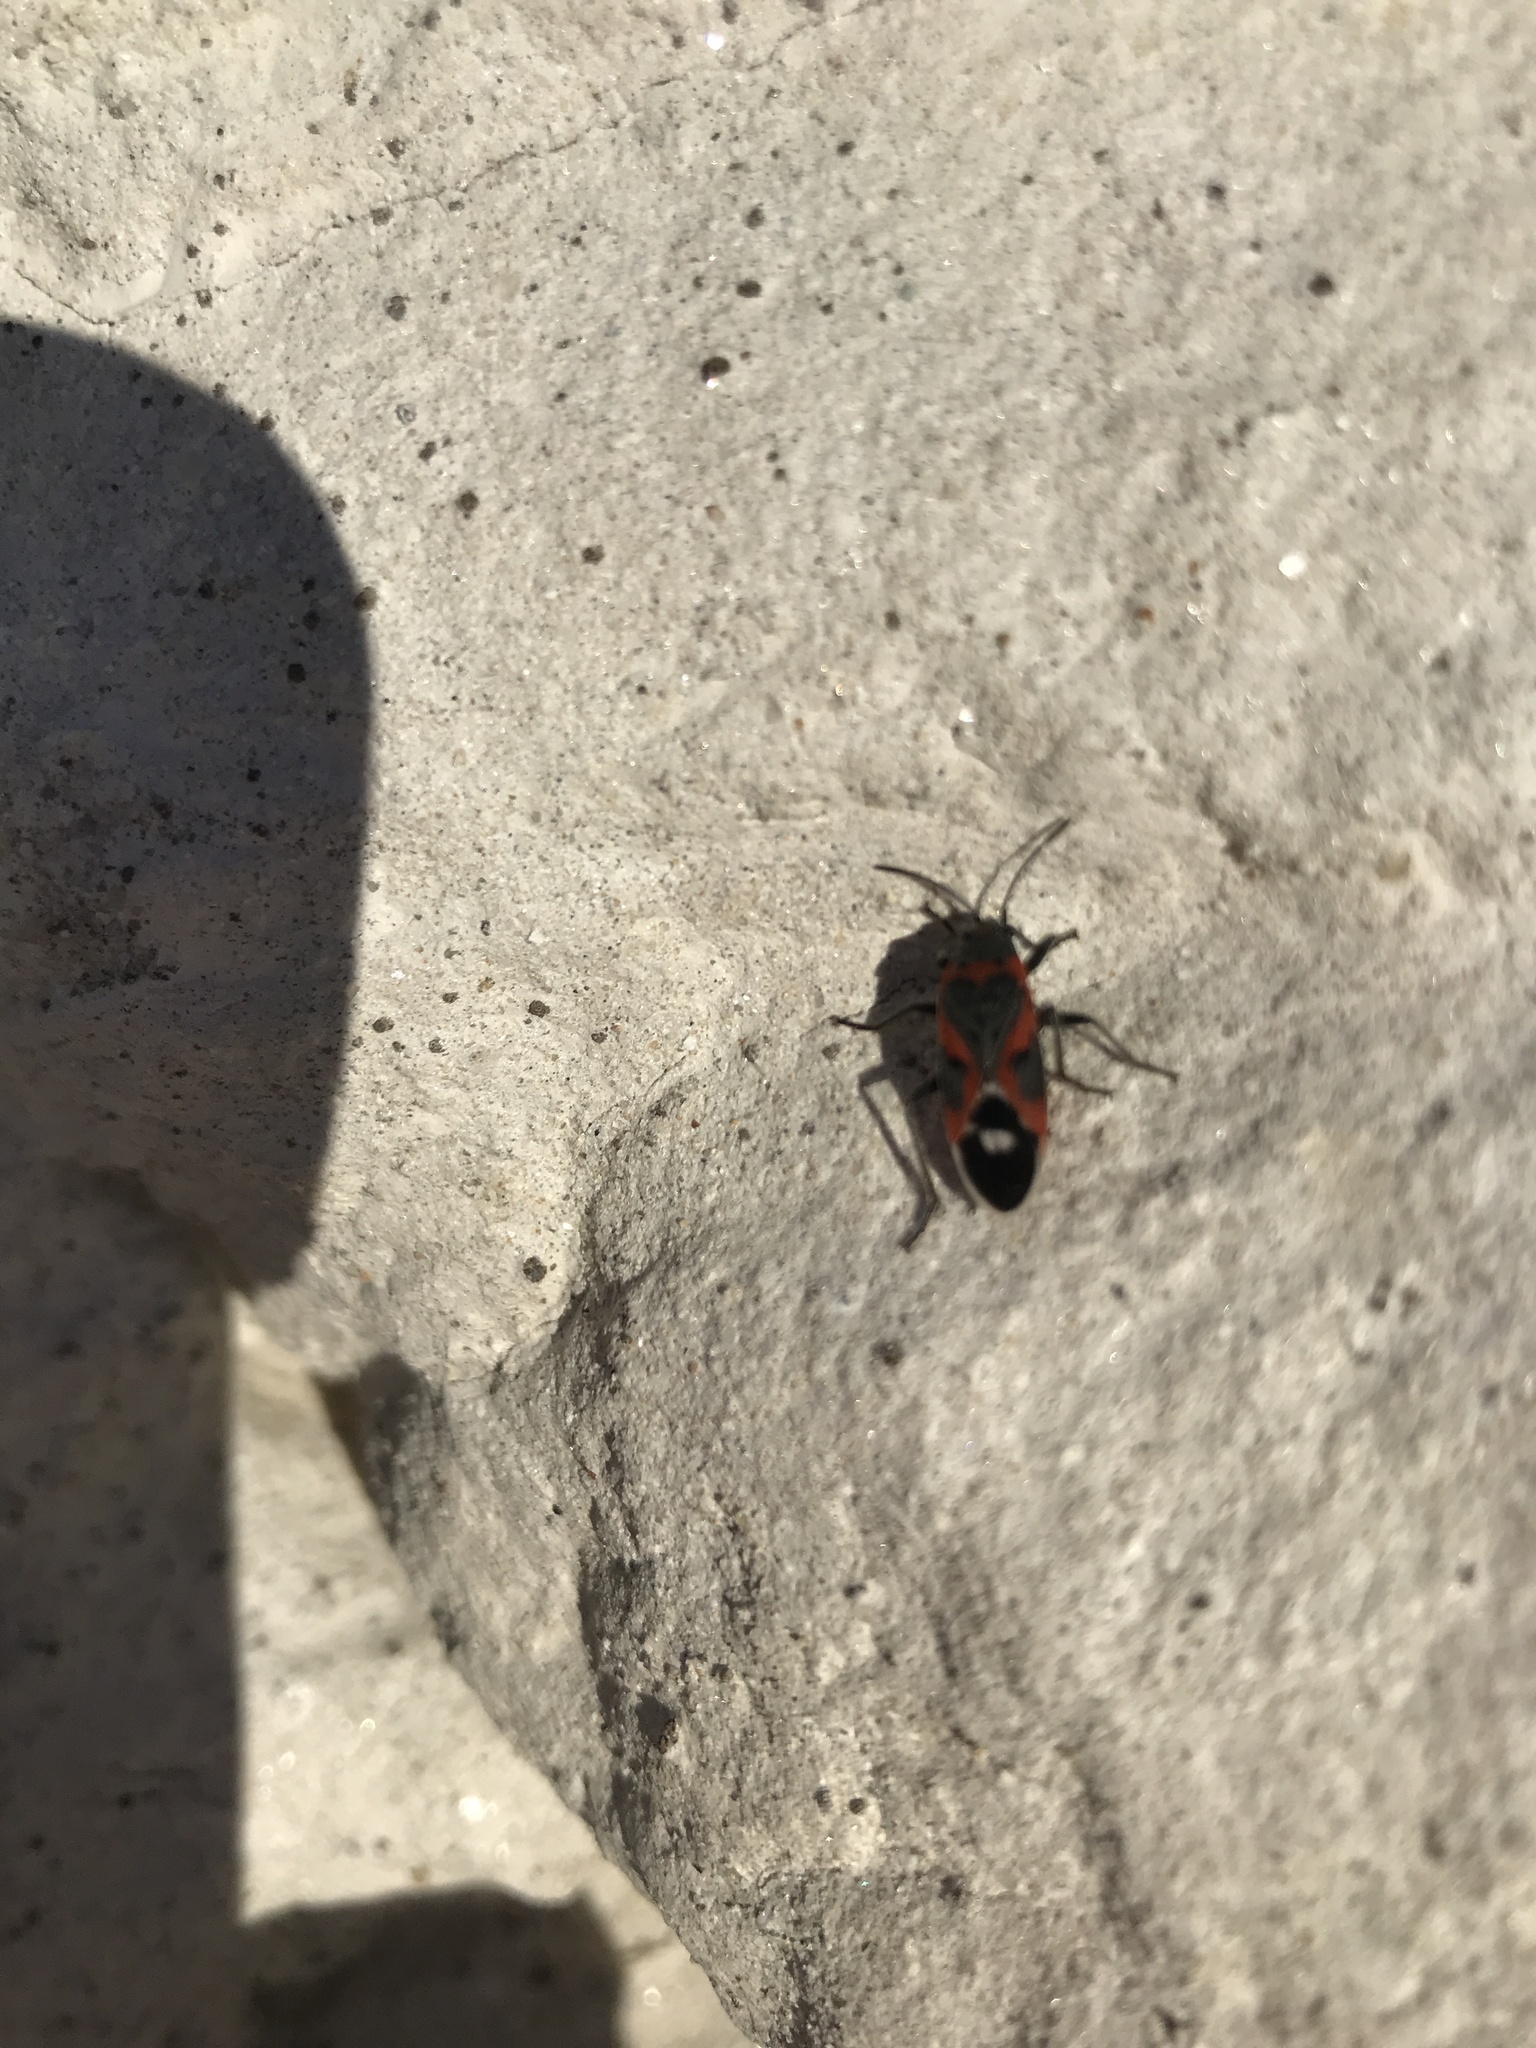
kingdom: Animalia
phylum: Arthropoda
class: Insecta
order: Hemiptera
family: Lygaeidae
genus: Lygaeus
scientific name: Lygaeus kalmii
